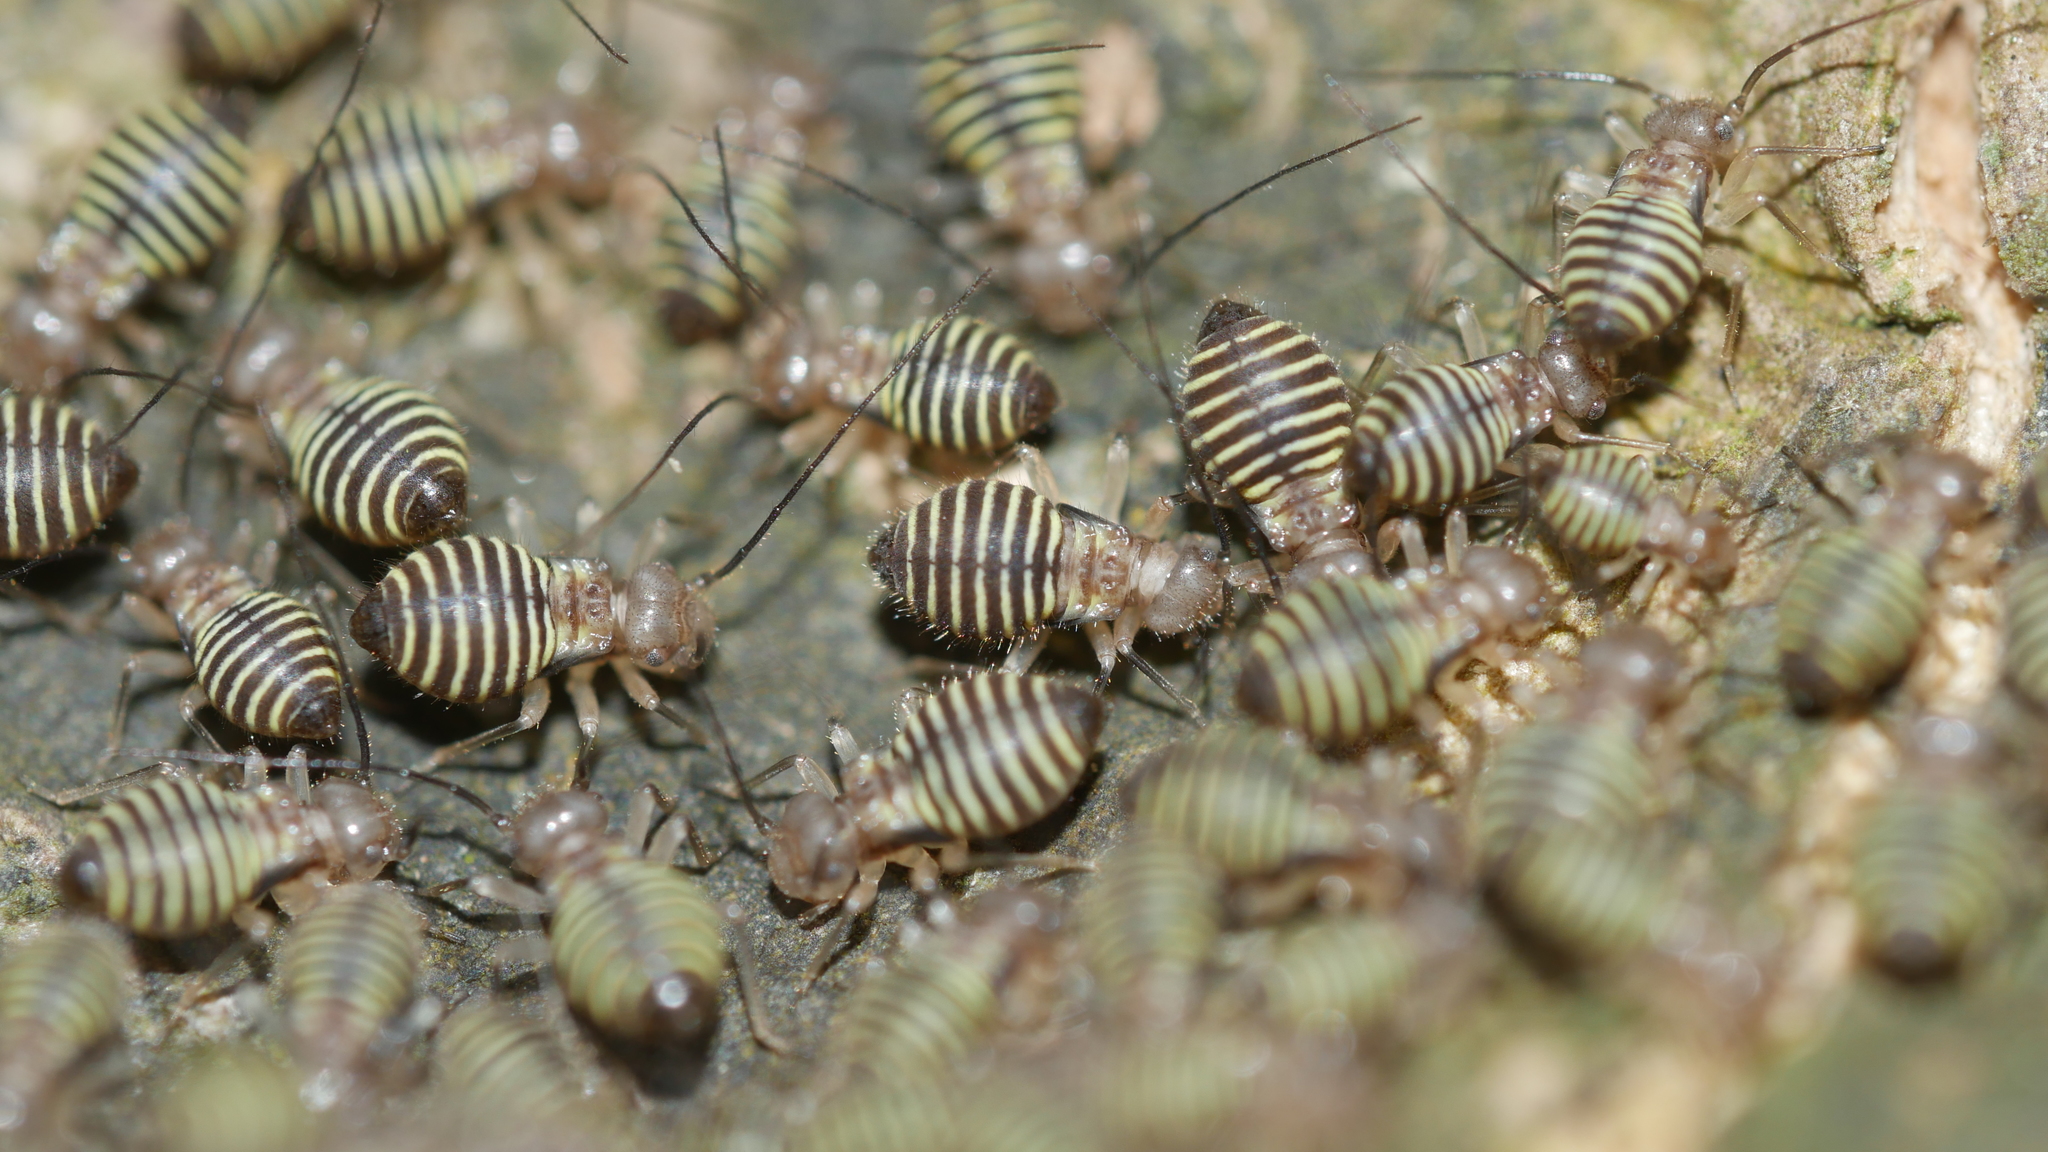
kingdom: Animalia
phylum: Arthropoda
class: Insecta
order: Psocodea
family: Psocidae
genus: Cerastipsocus
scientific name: Cerastipsocus venosus
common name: Tree cattle
